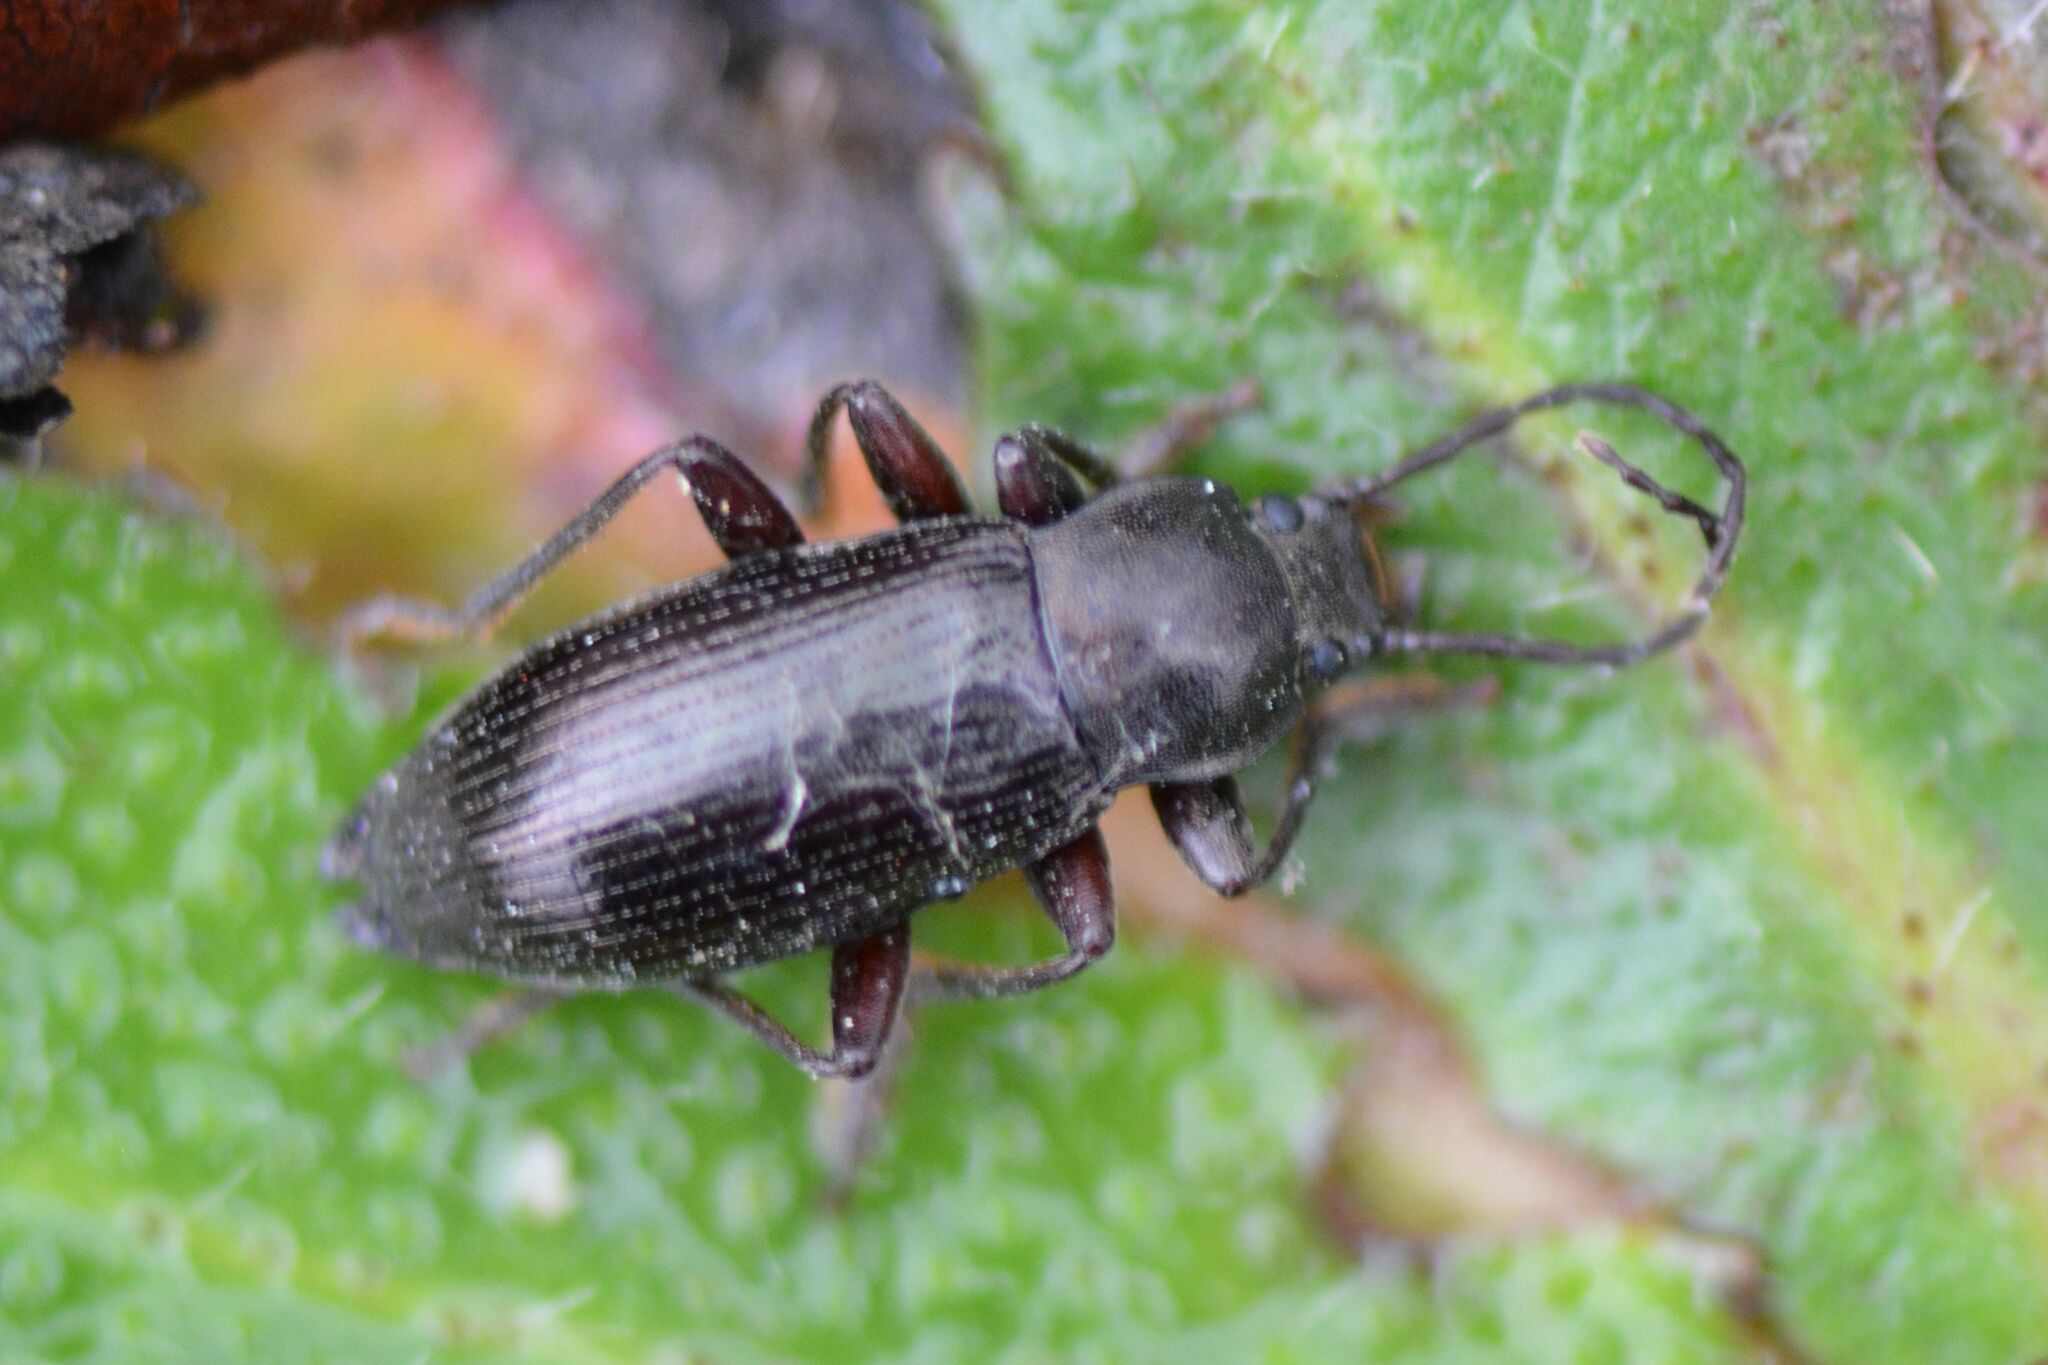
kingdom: Animalia
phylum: Arthropoda
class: Insecta
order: Coleoptera
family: Tenebrionidae
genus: Stenomax
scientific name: Stenomax aeneus
